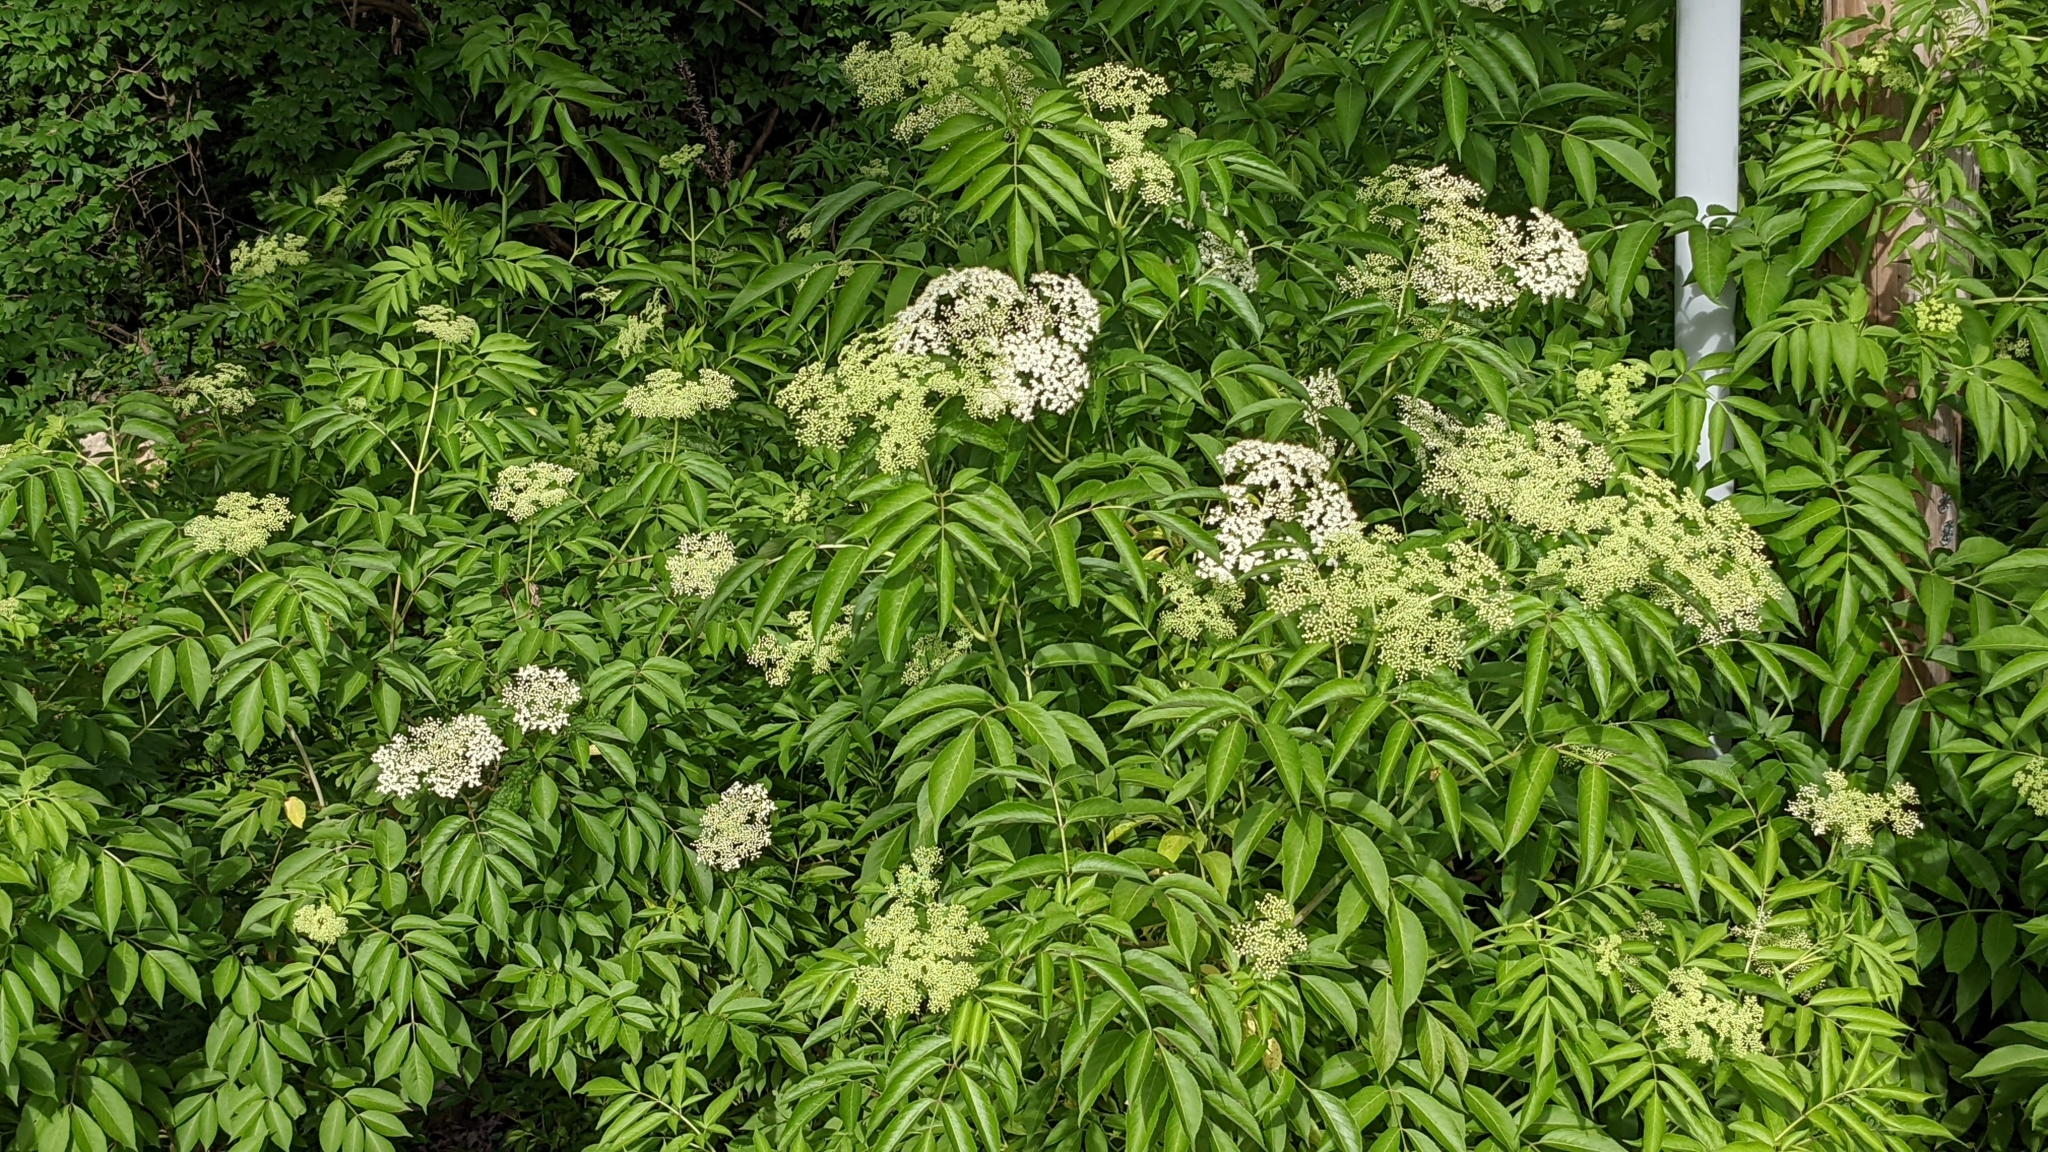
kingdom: Plantae
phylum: Tracheophyta
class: Magnoliopsida
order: Dipsacales
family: Viburnaceae
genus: Sambucus
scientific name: Sambucus canadensis
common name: American elder
